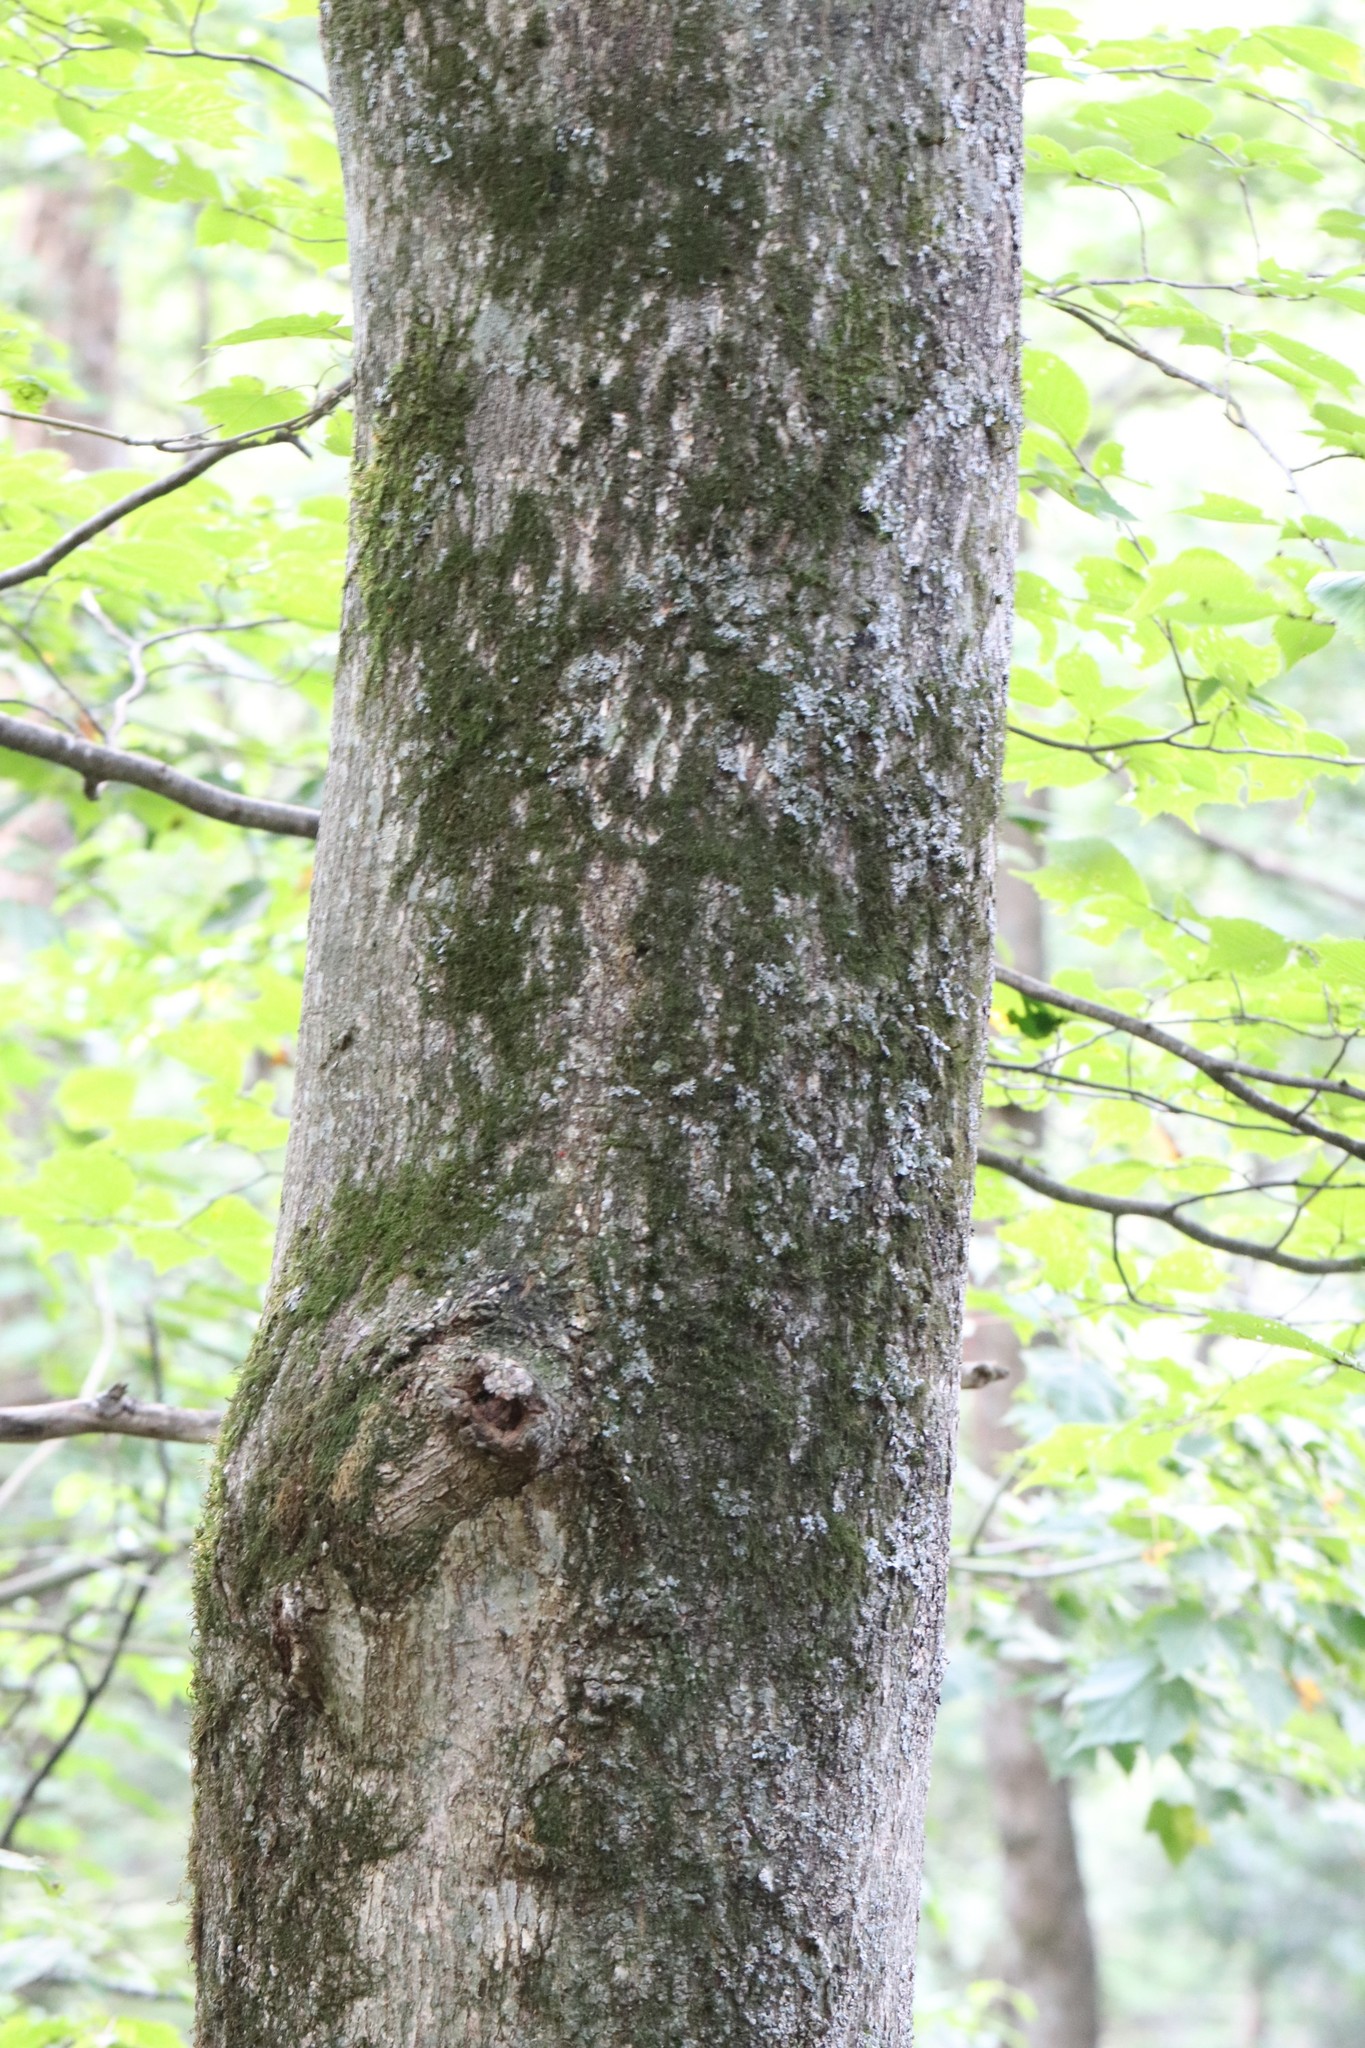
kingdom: Plantae
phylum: Tracheophyta
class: Magnoliopsida
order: Sapindales
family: Sapindaceae
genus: Acer
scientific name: Acer mandshuricum
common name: Manchurian maple
